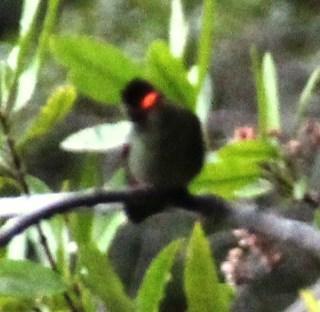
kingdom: Animalia
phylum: Chordata
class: Aves
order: Apodiformes
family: Trochilidae
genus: Sephanoides
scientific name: Sephanoides sephaniodes
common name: Green-backed firecrown
